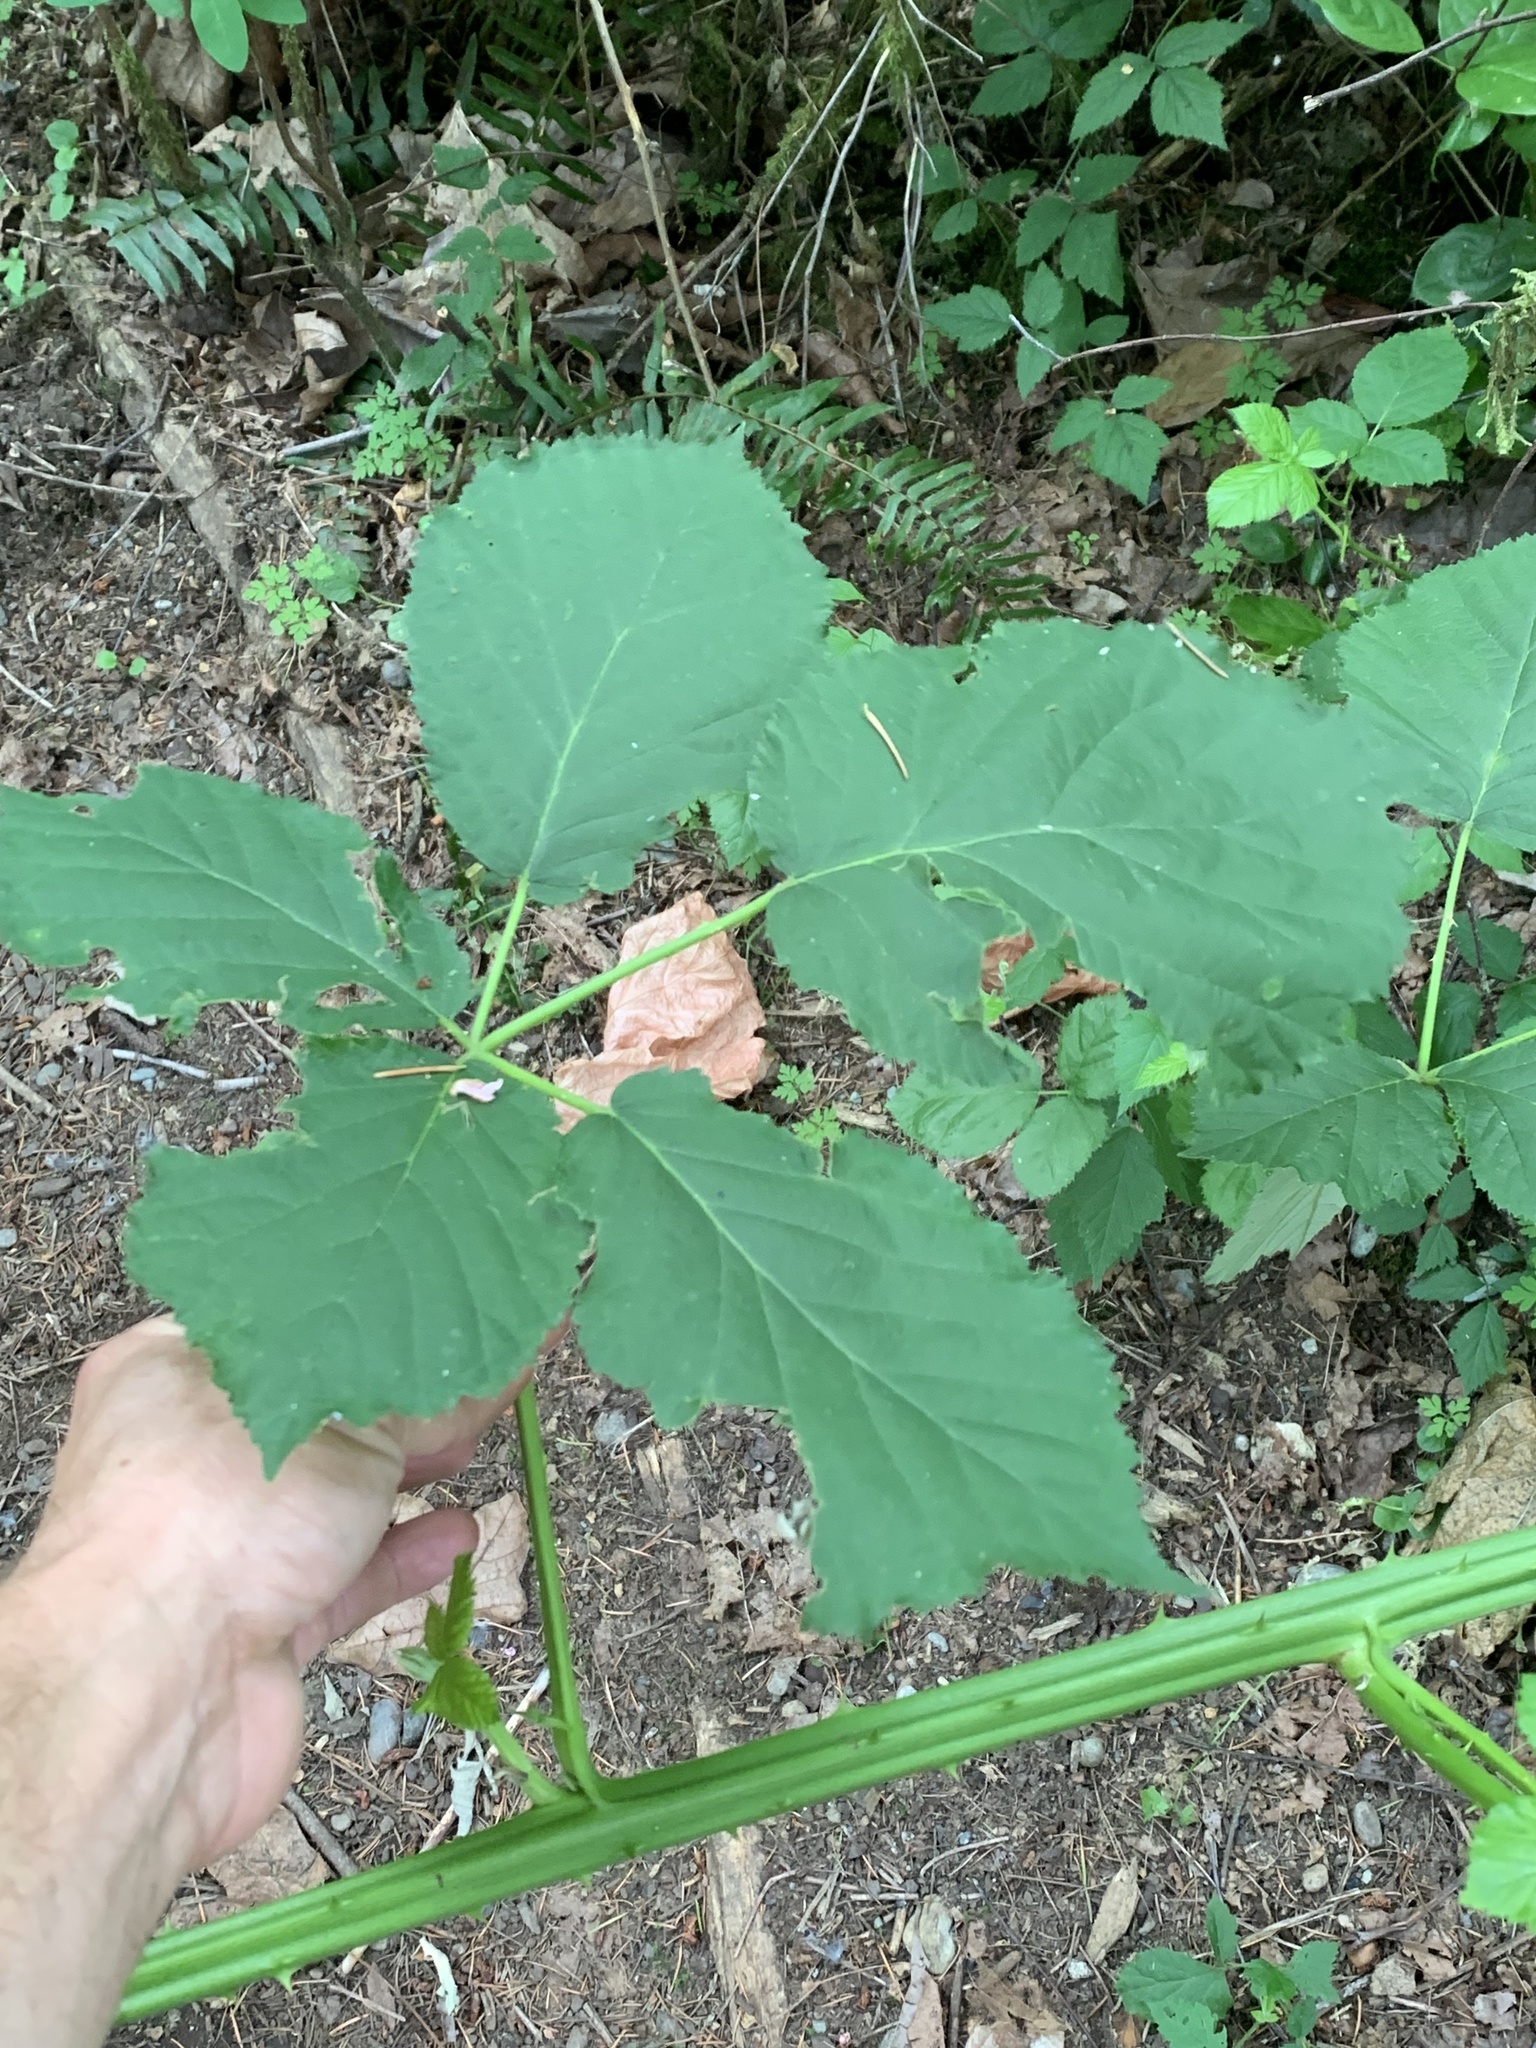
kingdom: Plantae
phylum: Tracheophyta
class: Magnoliopsida
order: Rosales
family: Rosaceae
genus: Rubus
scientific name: Rubus armeniacus
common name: Himalayan blackberry
